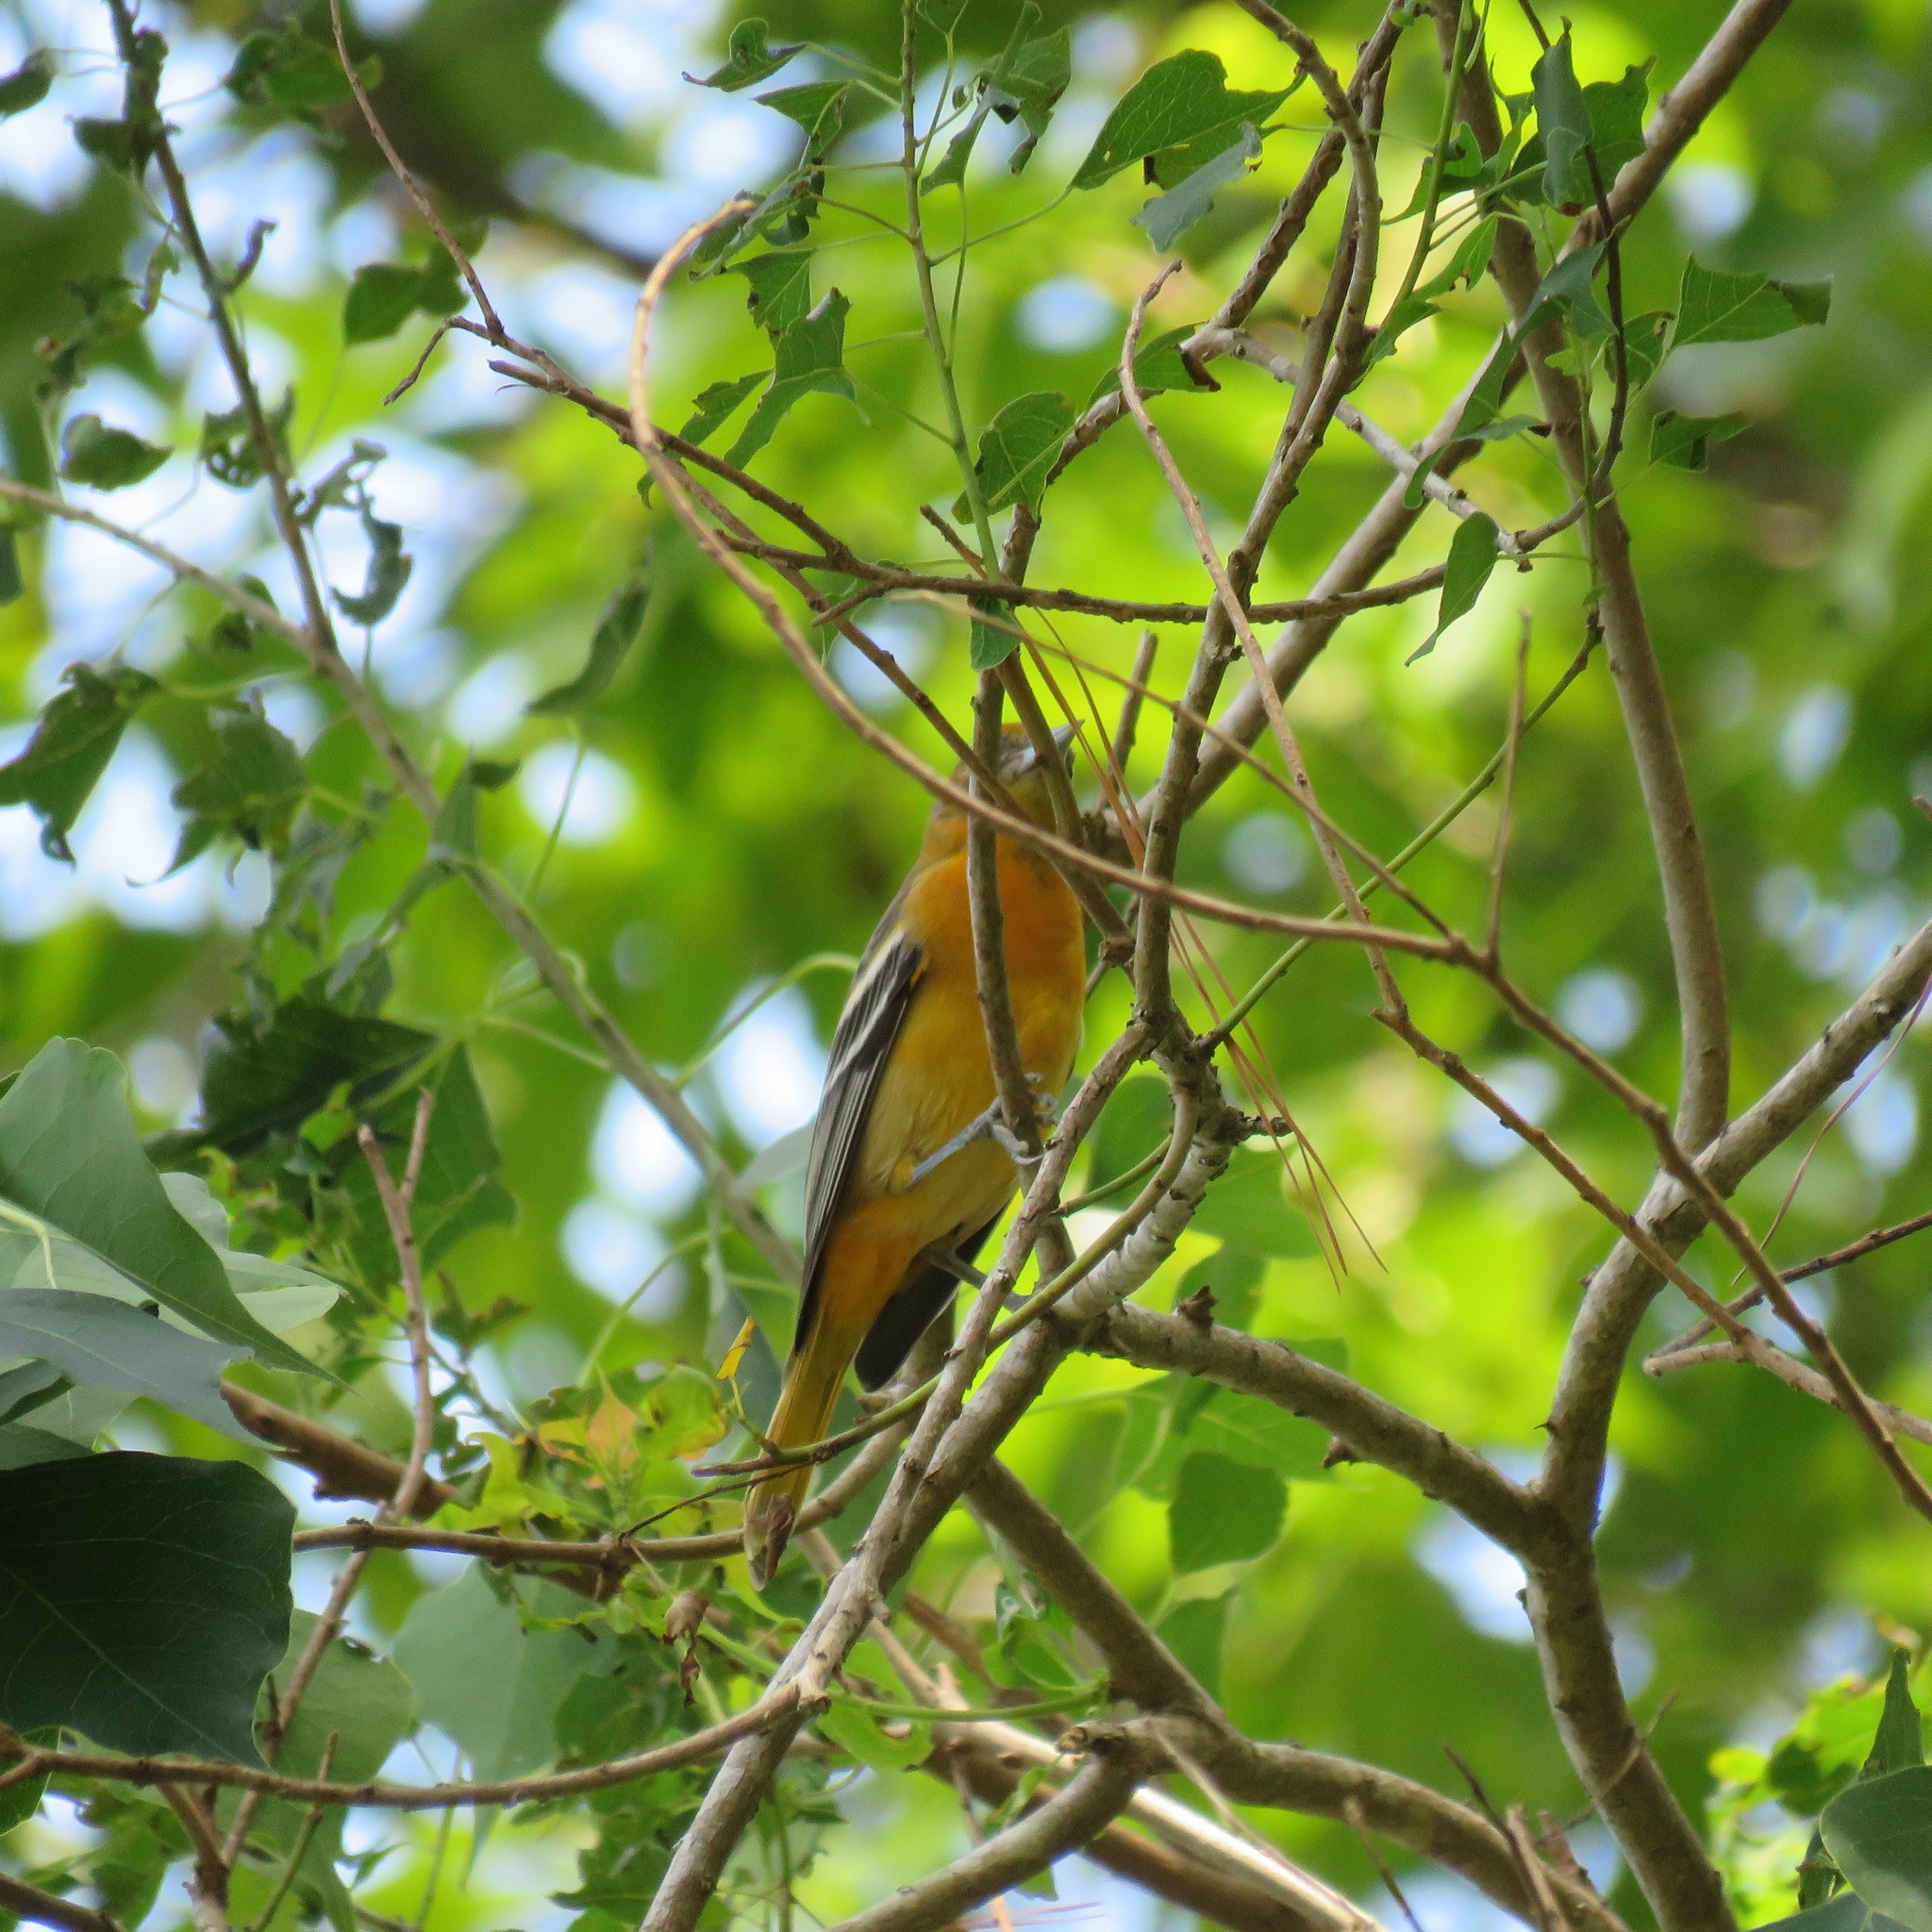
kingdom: Animalia
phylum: Chordata
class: Aves
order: Passeriformes
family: Icteridae
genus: Icterus
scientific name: Icterus galbula
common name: Baltimore oriole
